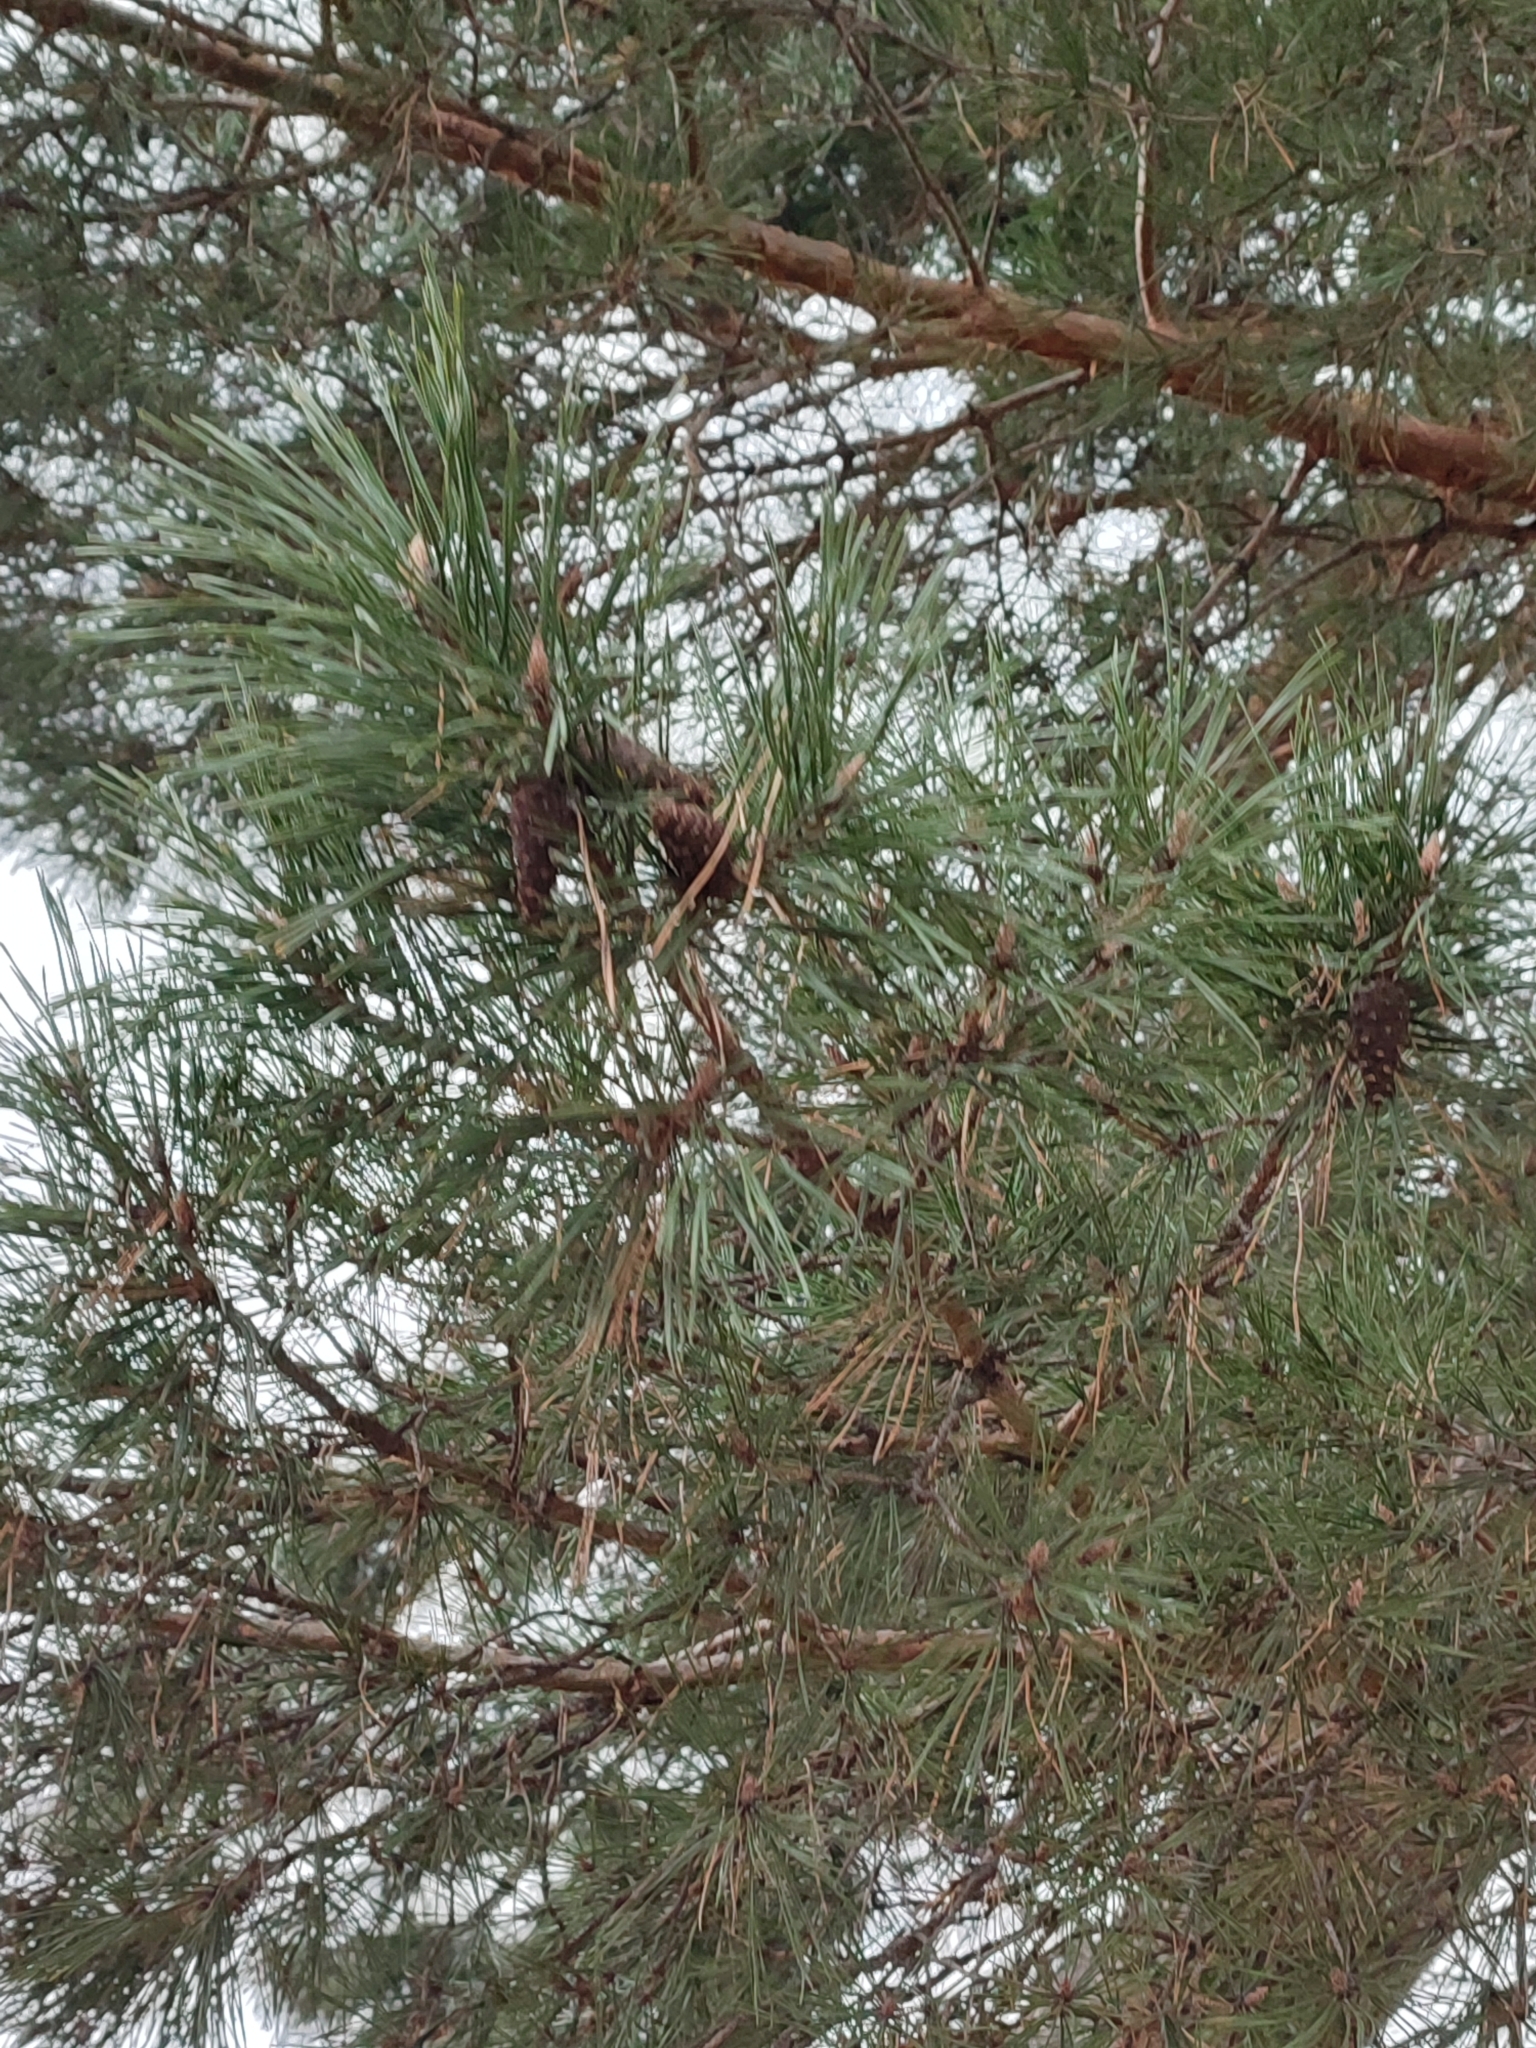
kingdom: Plantae
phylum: Tracheophyta
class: Pinopsida
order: Pinales
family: Pinaceae
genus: Pinus
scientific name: Pinus sylvestris
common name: Scots pine
